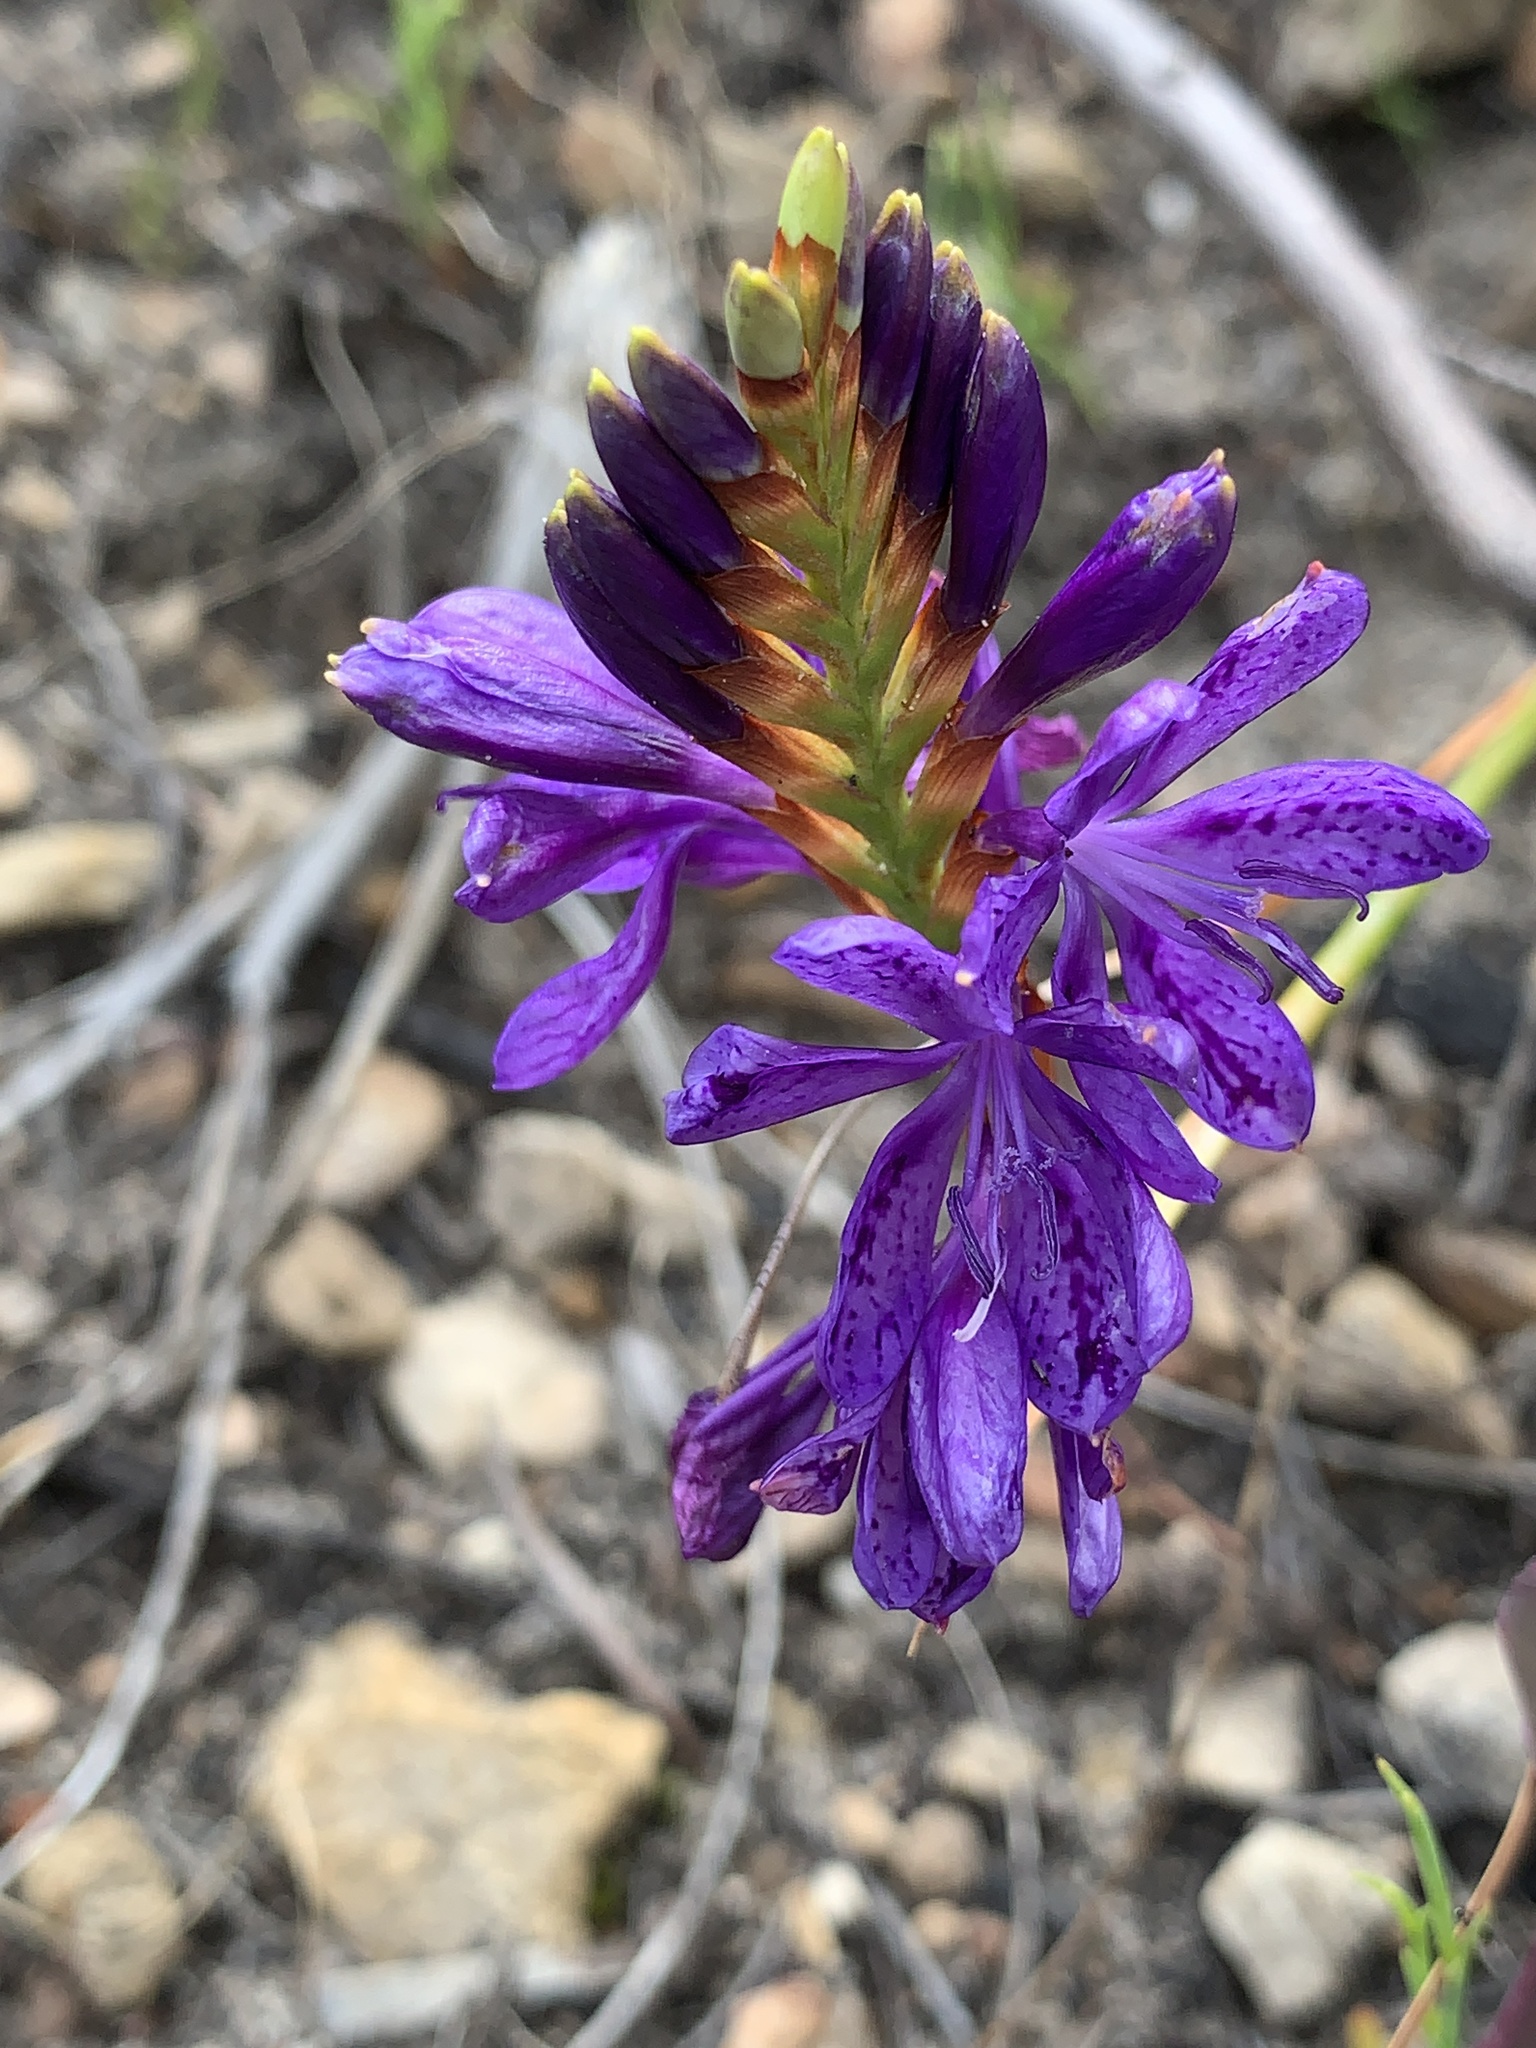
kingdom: Plantae
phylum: Tracheophyta
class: Liliopsida
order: Asparagales
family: Iridaceae
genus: Thereianthus
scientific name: Thereianthus bracteolatus
